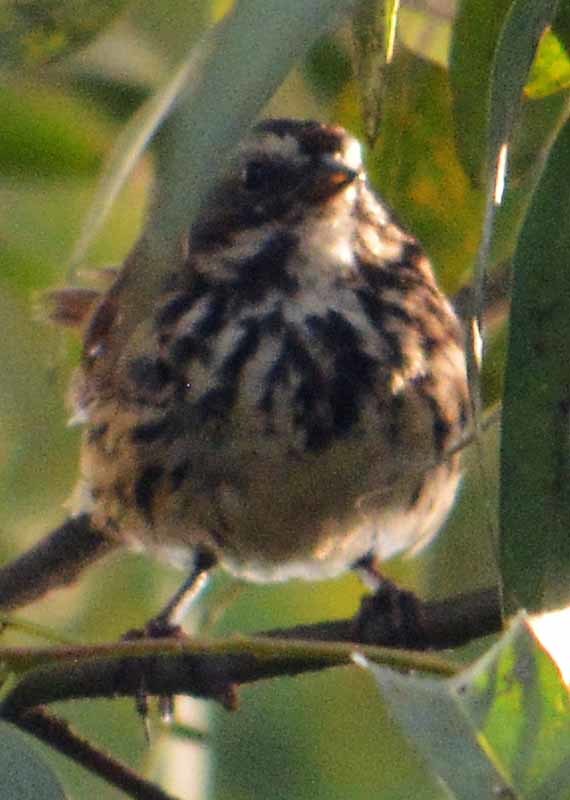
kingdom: Animalia
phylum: Chordata
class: Aves
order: Passeriformes
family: Passerellidae
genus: Melospiza
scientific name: Melospiza melodia
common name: Song sparrow
